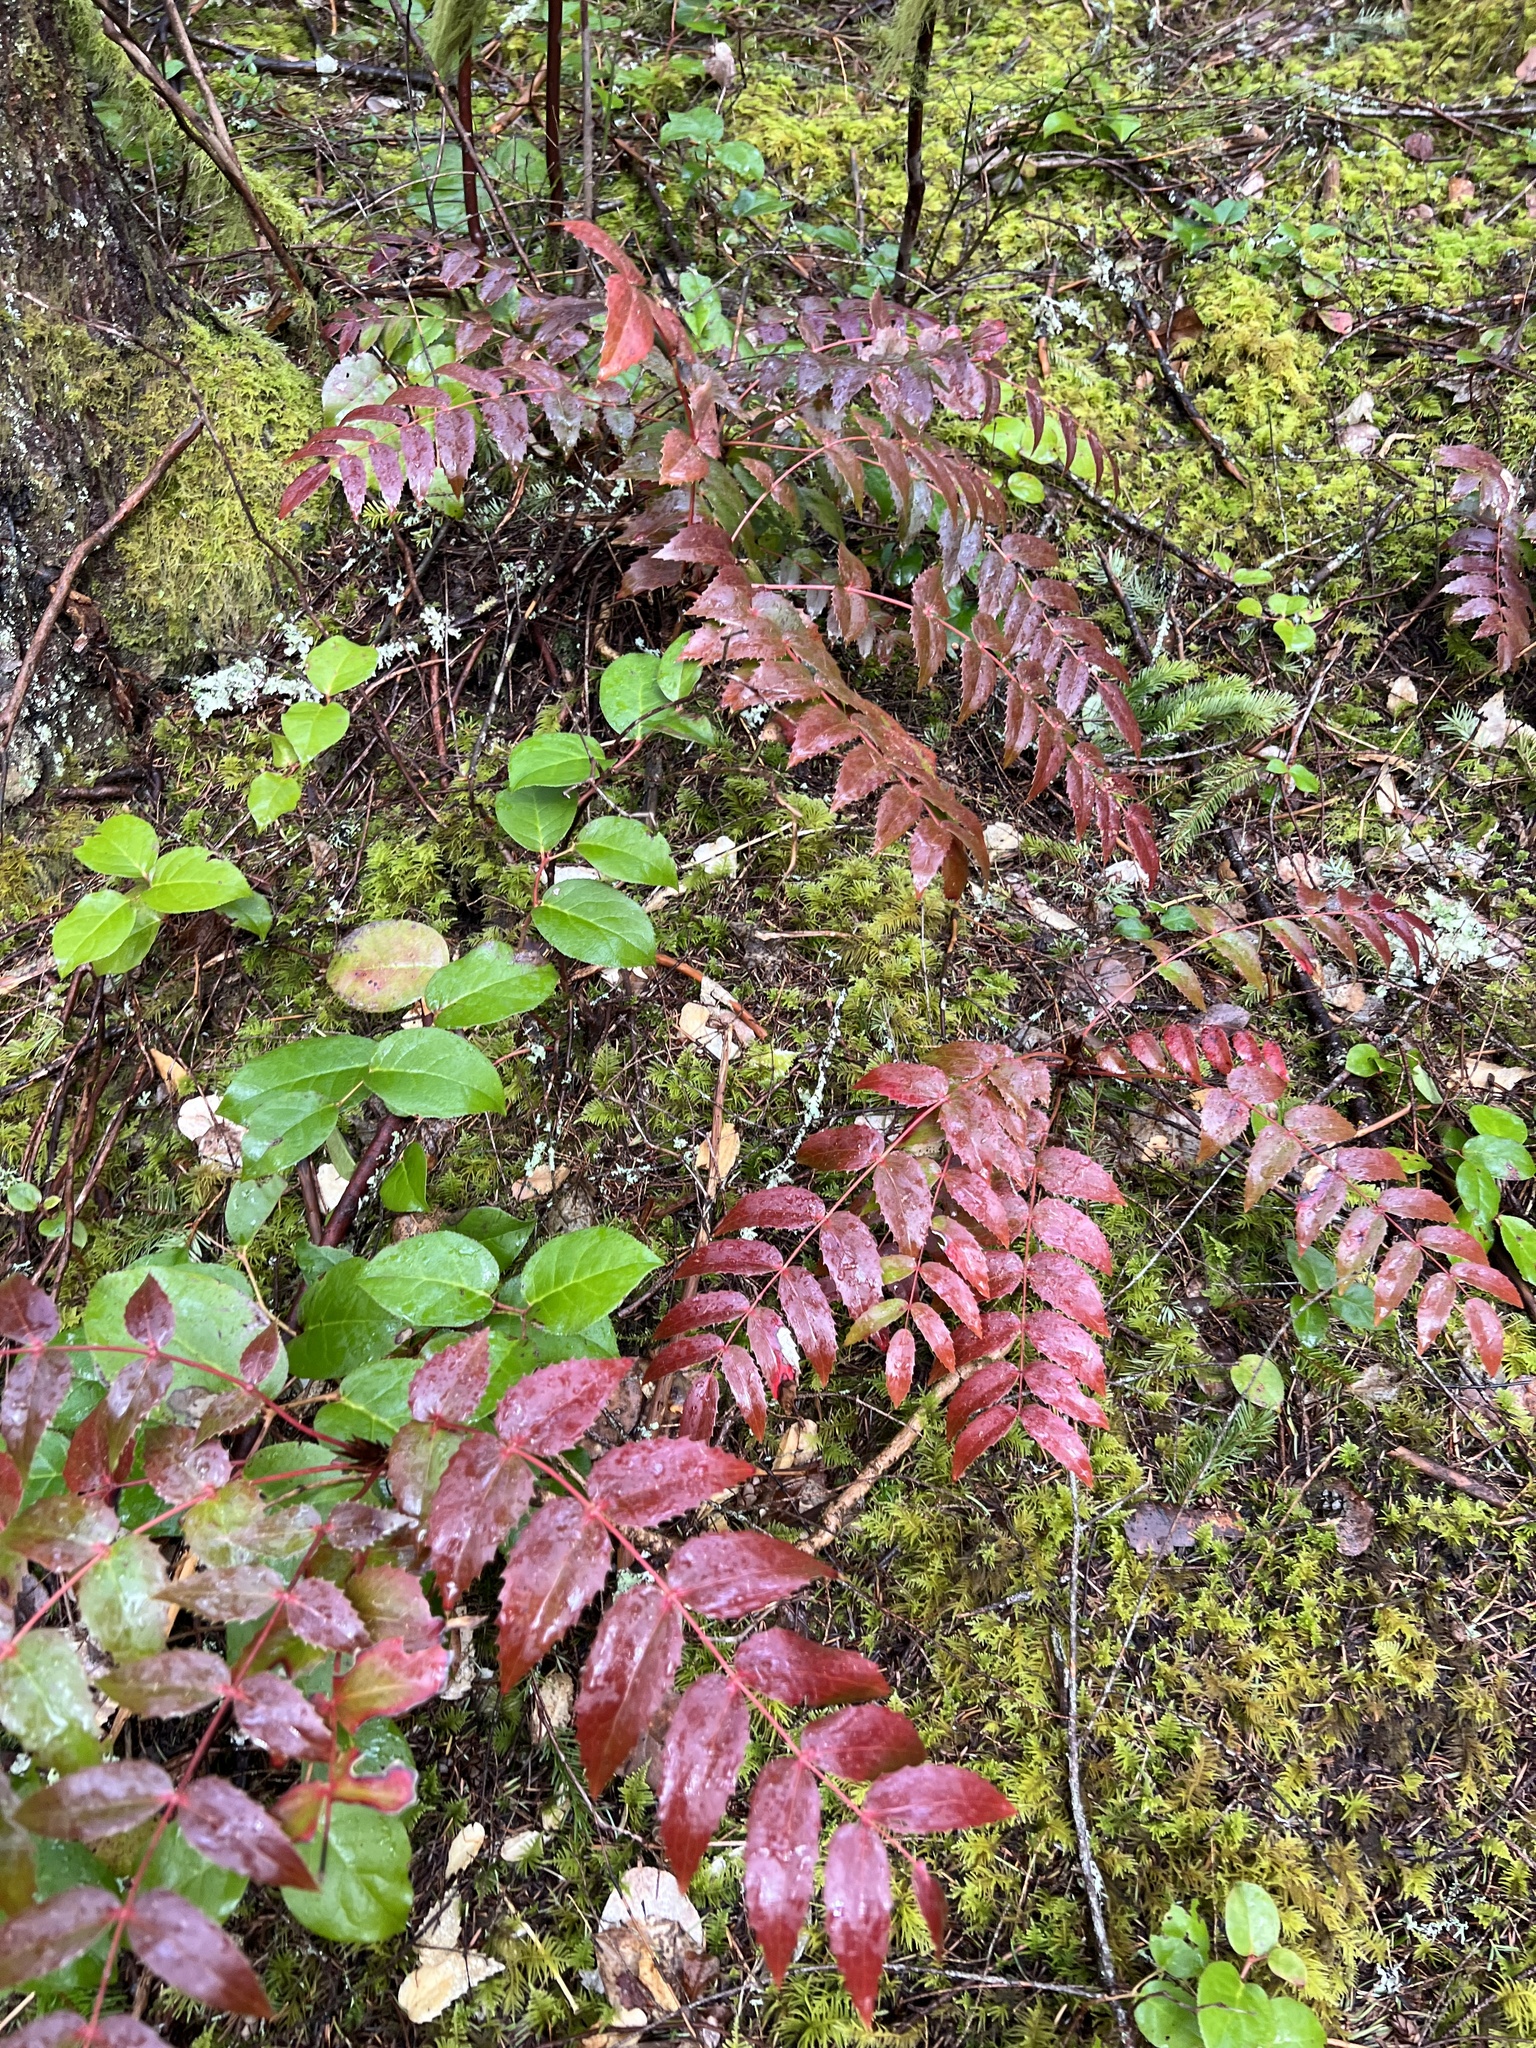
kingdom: Plantae
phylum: Tracheophyta
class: Magnoliopsida
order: Ranunculales
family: Berberidaceae
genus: Mahonia
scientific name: Mahonia nervosa
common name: Cascade oregon-grape
